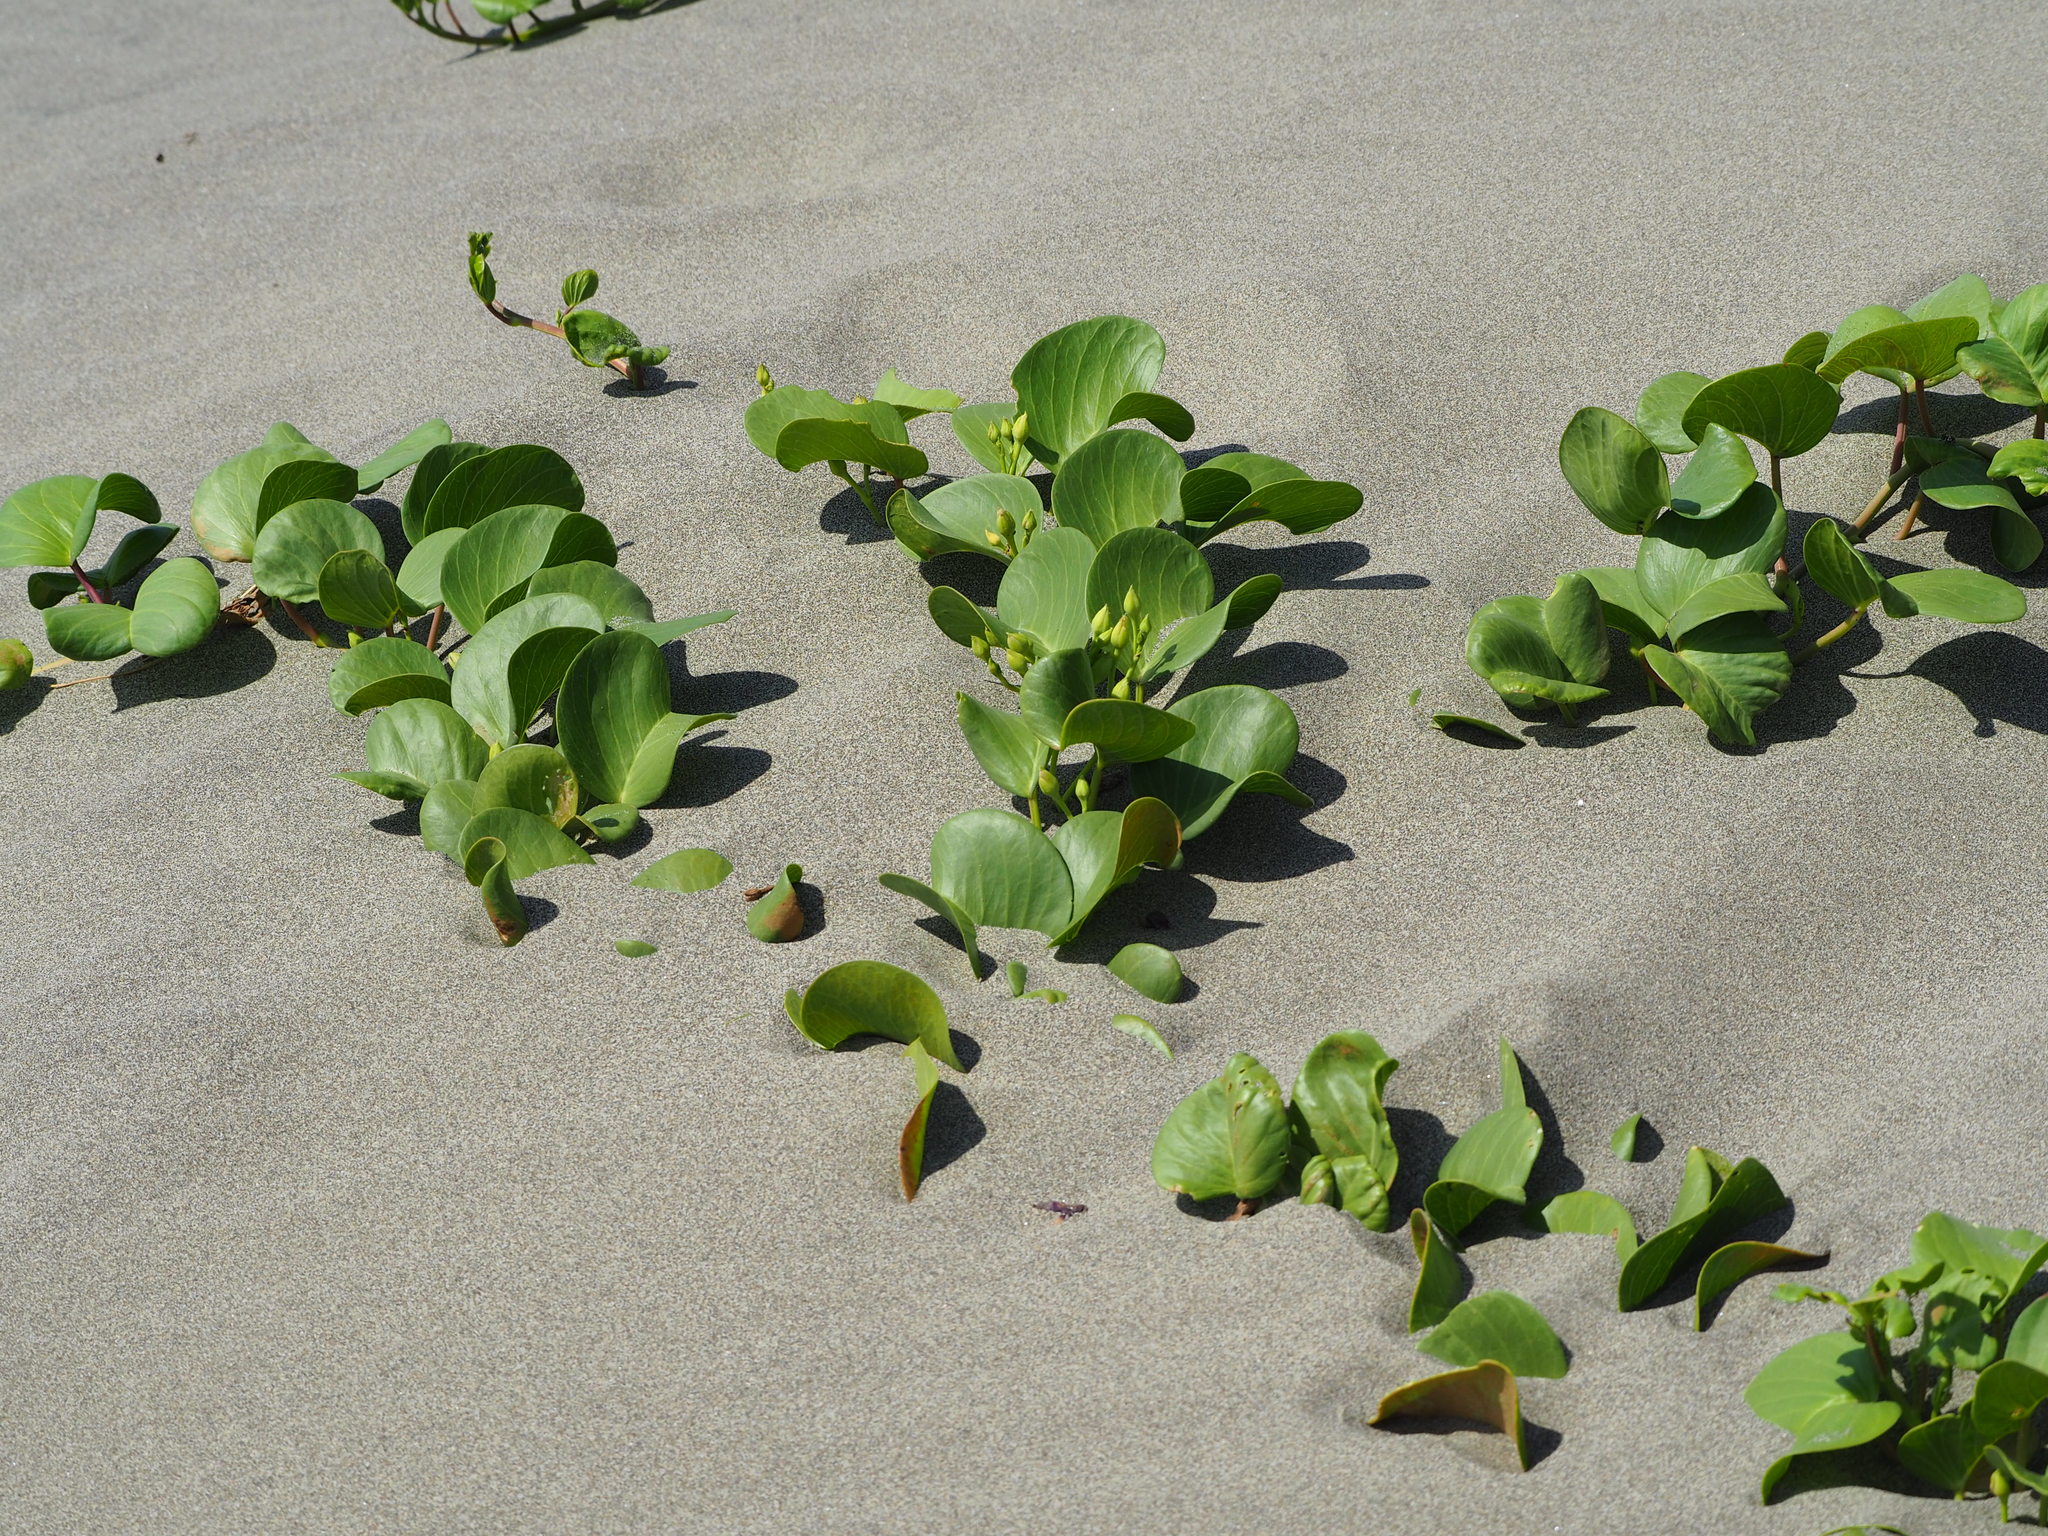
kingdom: Plantae
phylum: Tracheophyta
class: Magnoliopsida
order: Solanales
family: Convolvulaceae
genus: Ipomoea
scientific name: Ipomoea pes-caprae
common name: Beach morning glory
